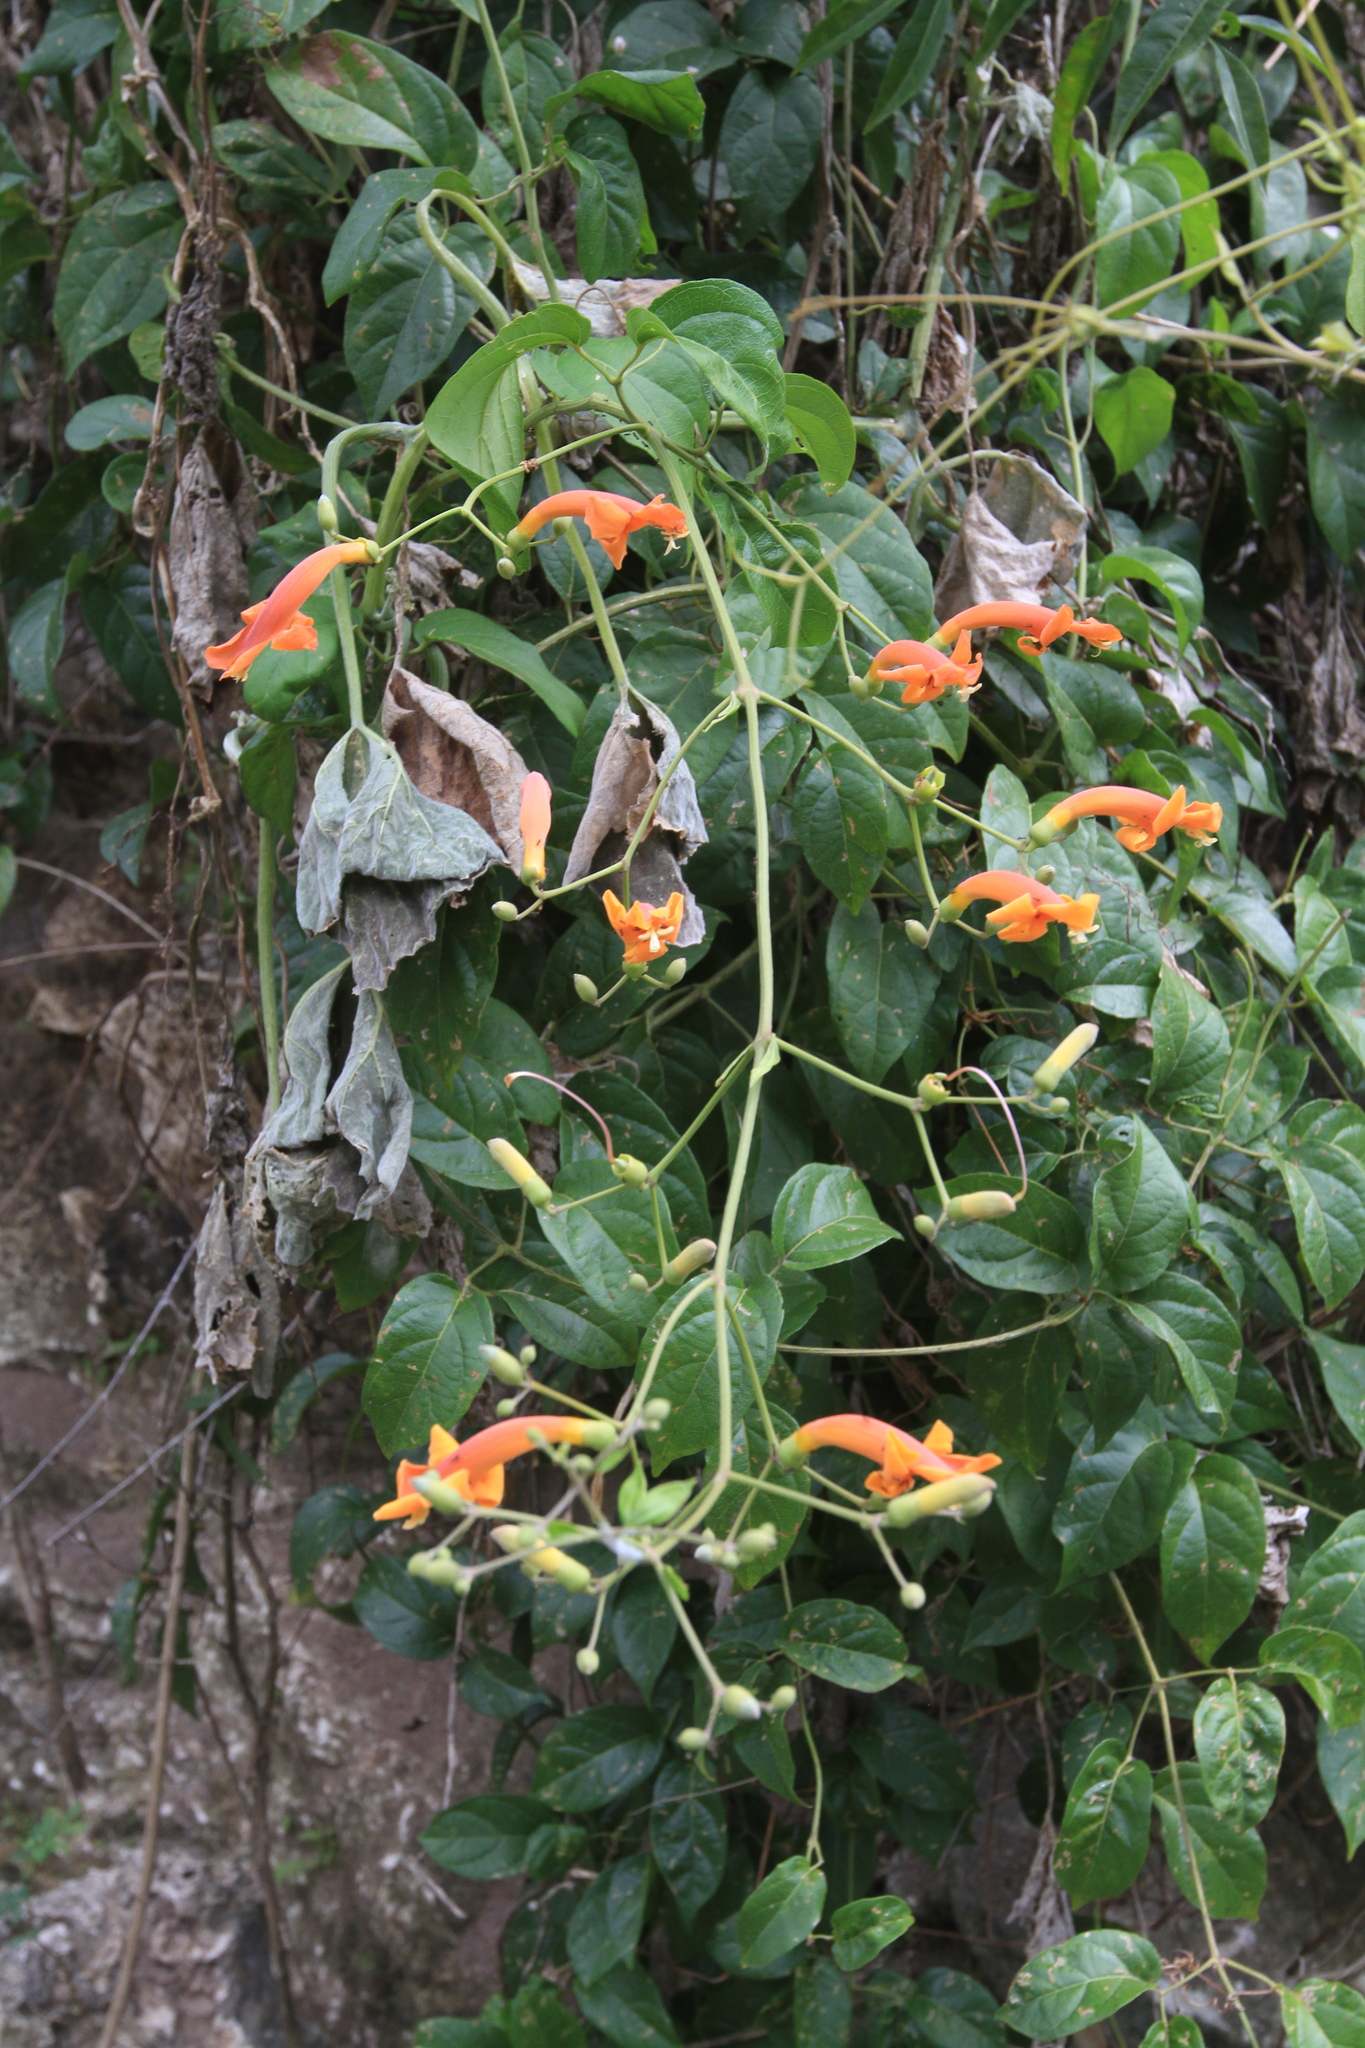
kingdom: Plantae
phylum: Tracheophyta
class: Magnoliopsida
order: Lamiales
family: Bignoniaceae
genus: Amphilophium
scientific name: Amphilophium stamineum
